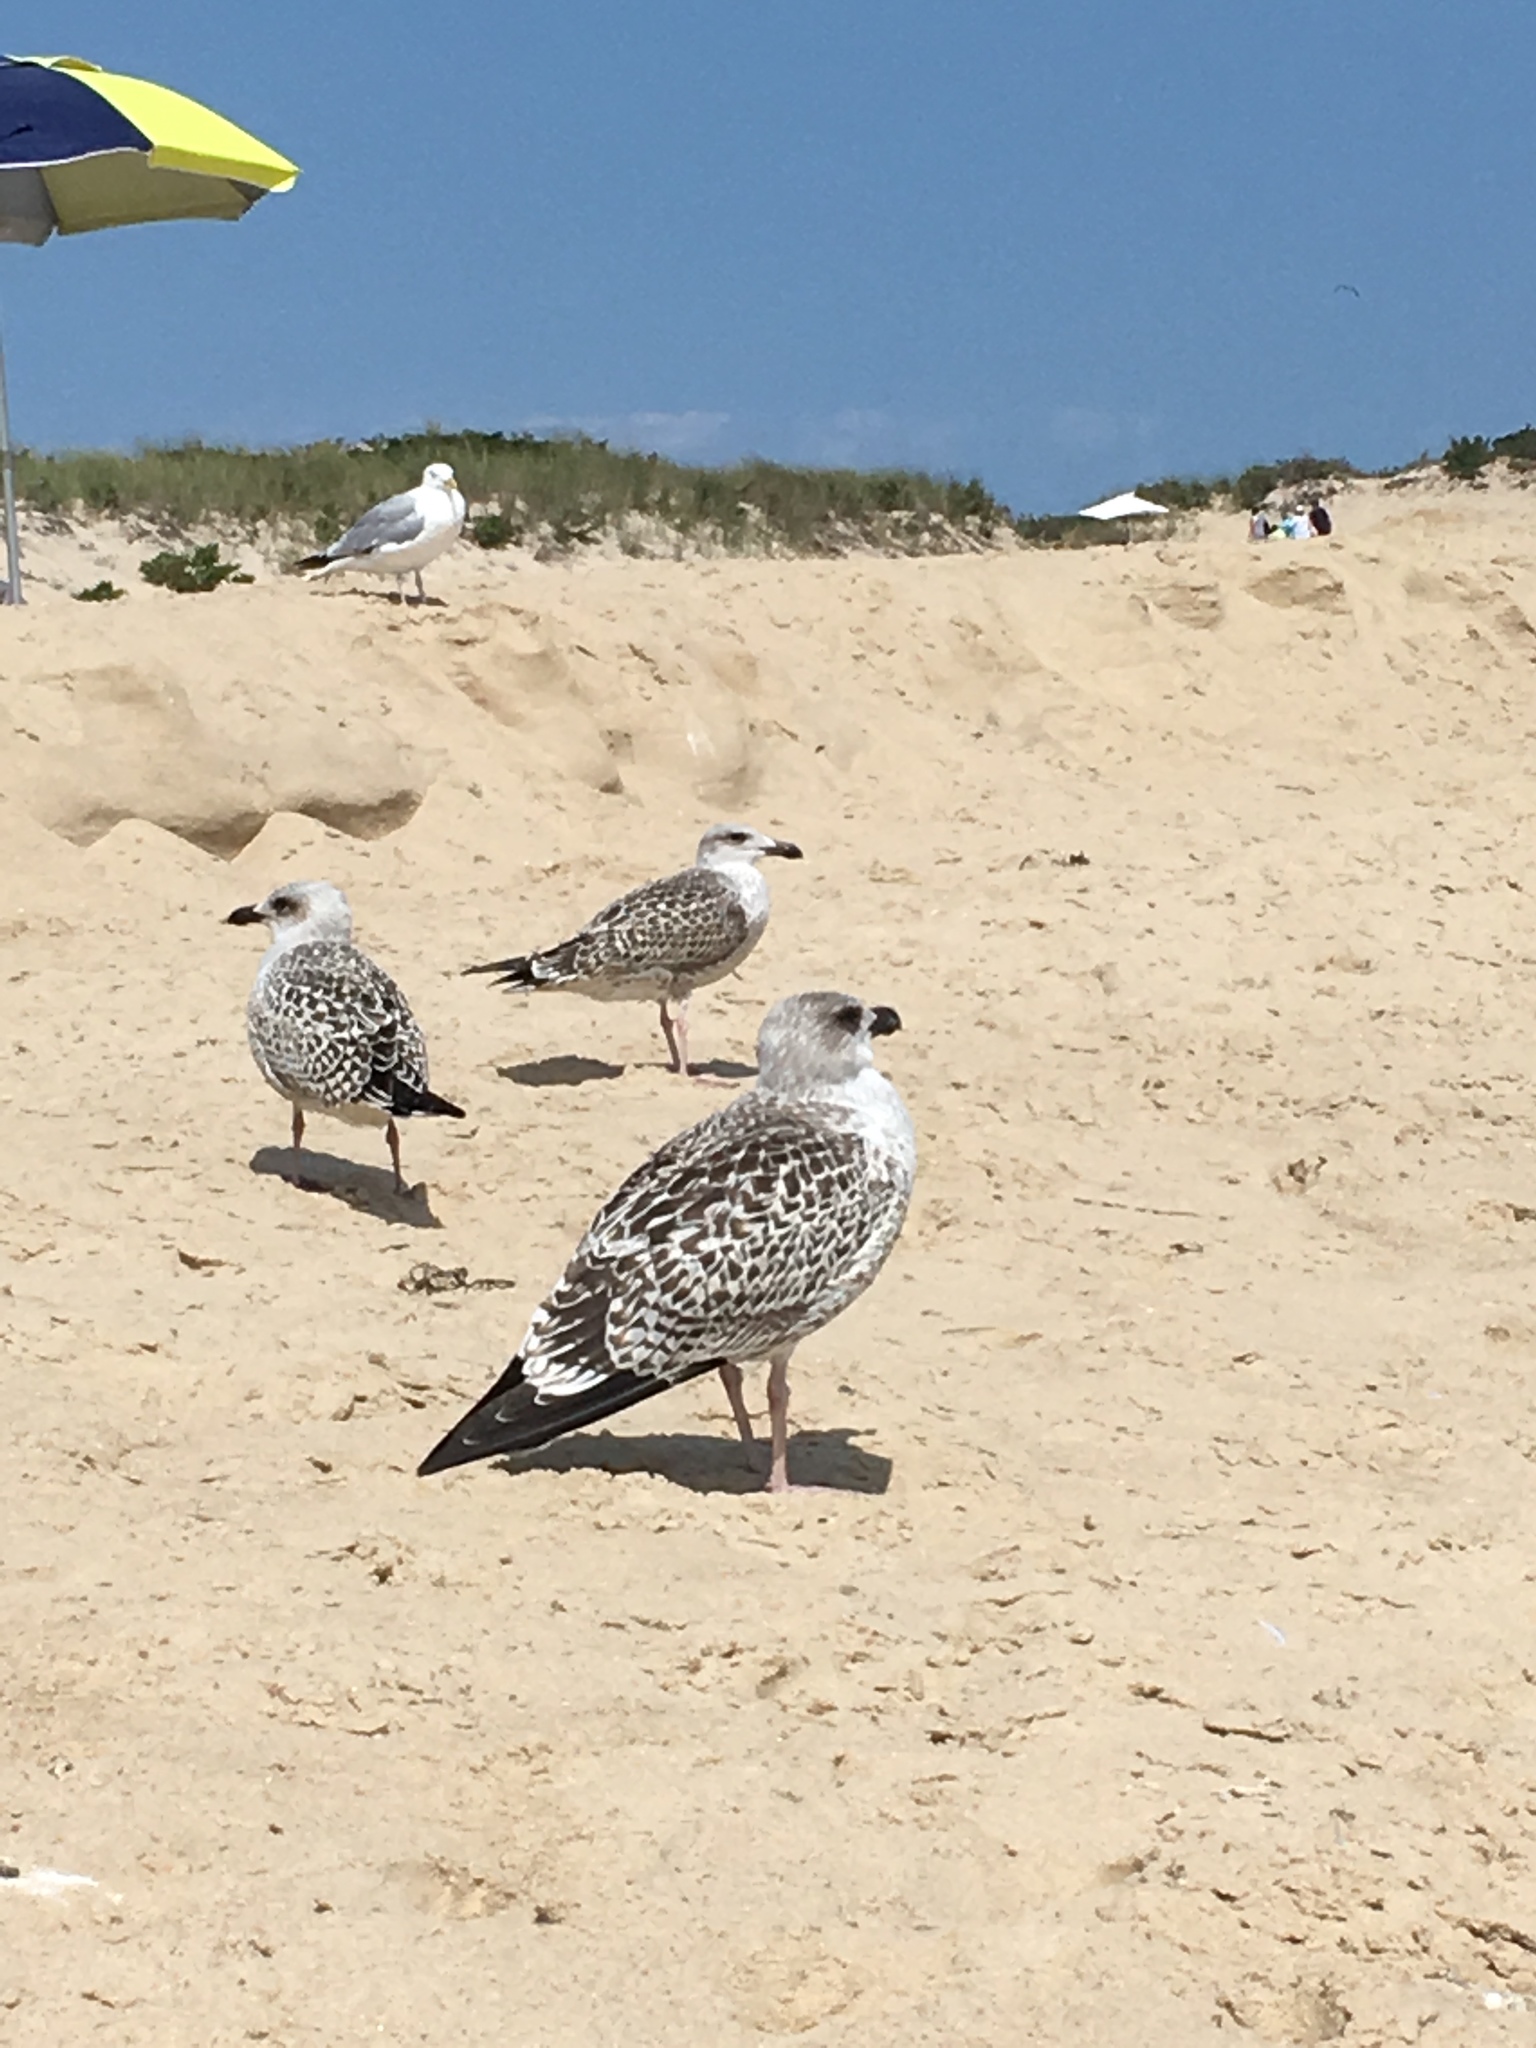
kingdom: Animalia
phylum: Chordata
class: Aves
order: Charadriiformes
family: Laridae
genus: Larus
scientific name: Larus marinus
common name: Great black-backed gull
